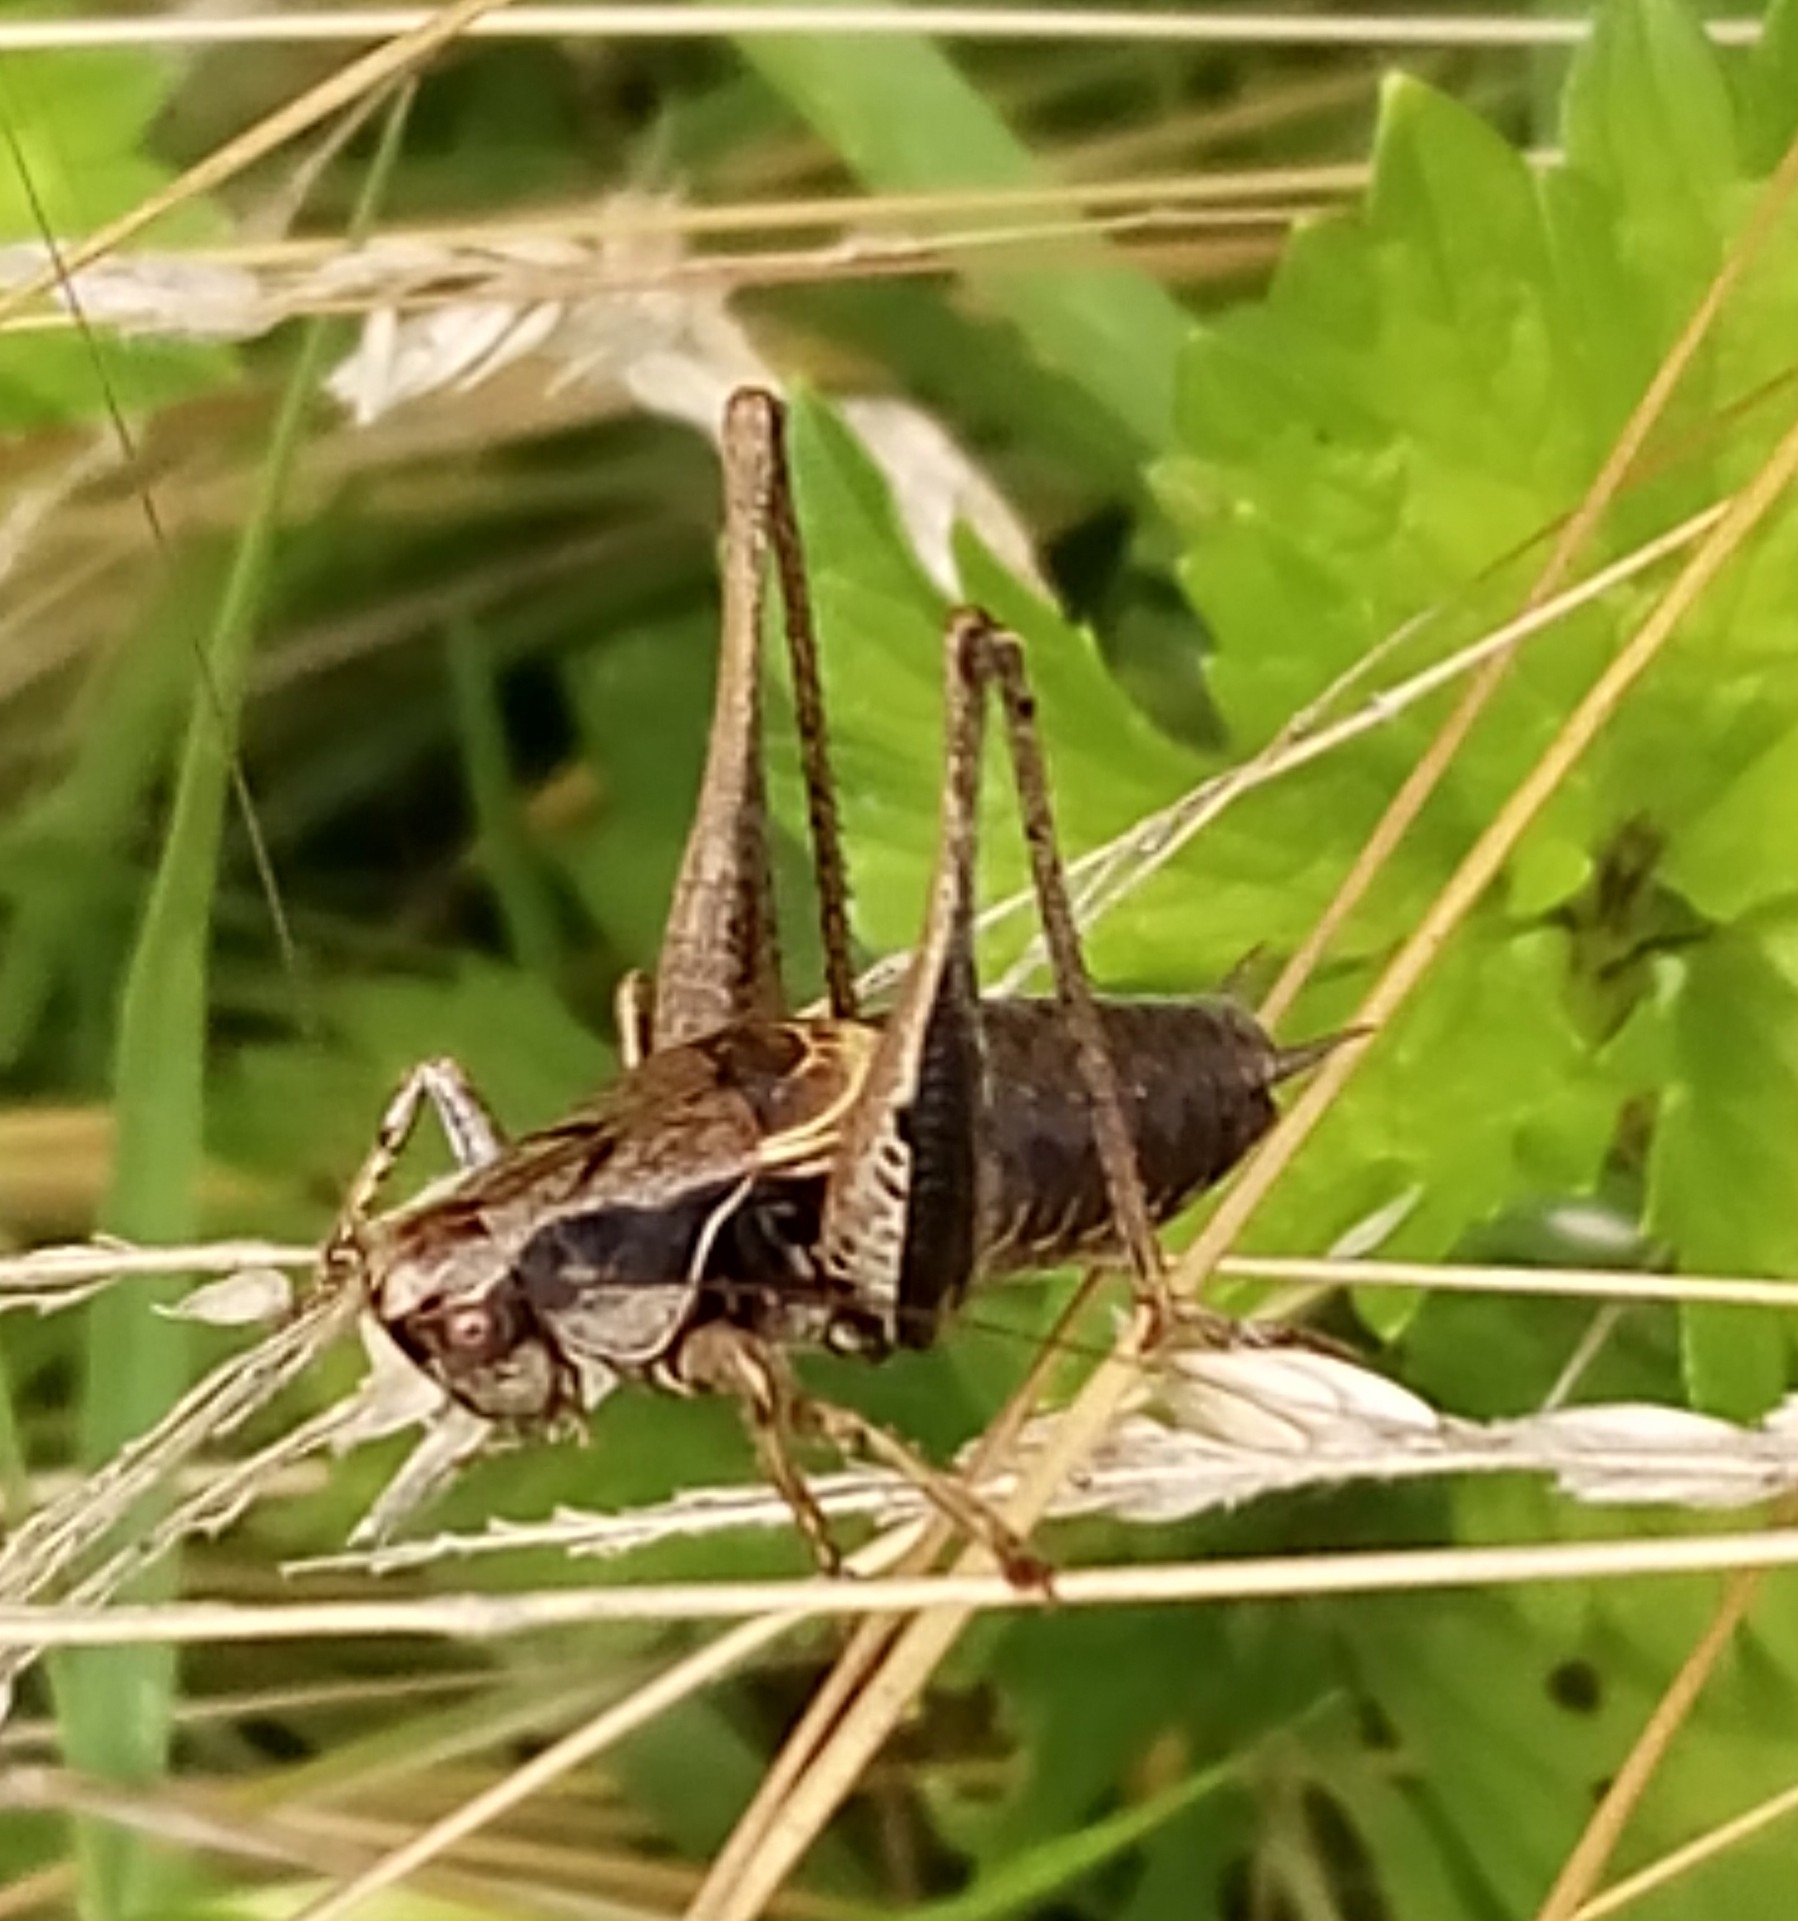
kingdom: Animalia
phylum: Arthropoda
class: Insecta
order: Orthoptera
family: Tettigoniidae
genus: Pholidoptera
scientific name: Pholidoptera griseoaptera
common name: Dark bush-cricket
